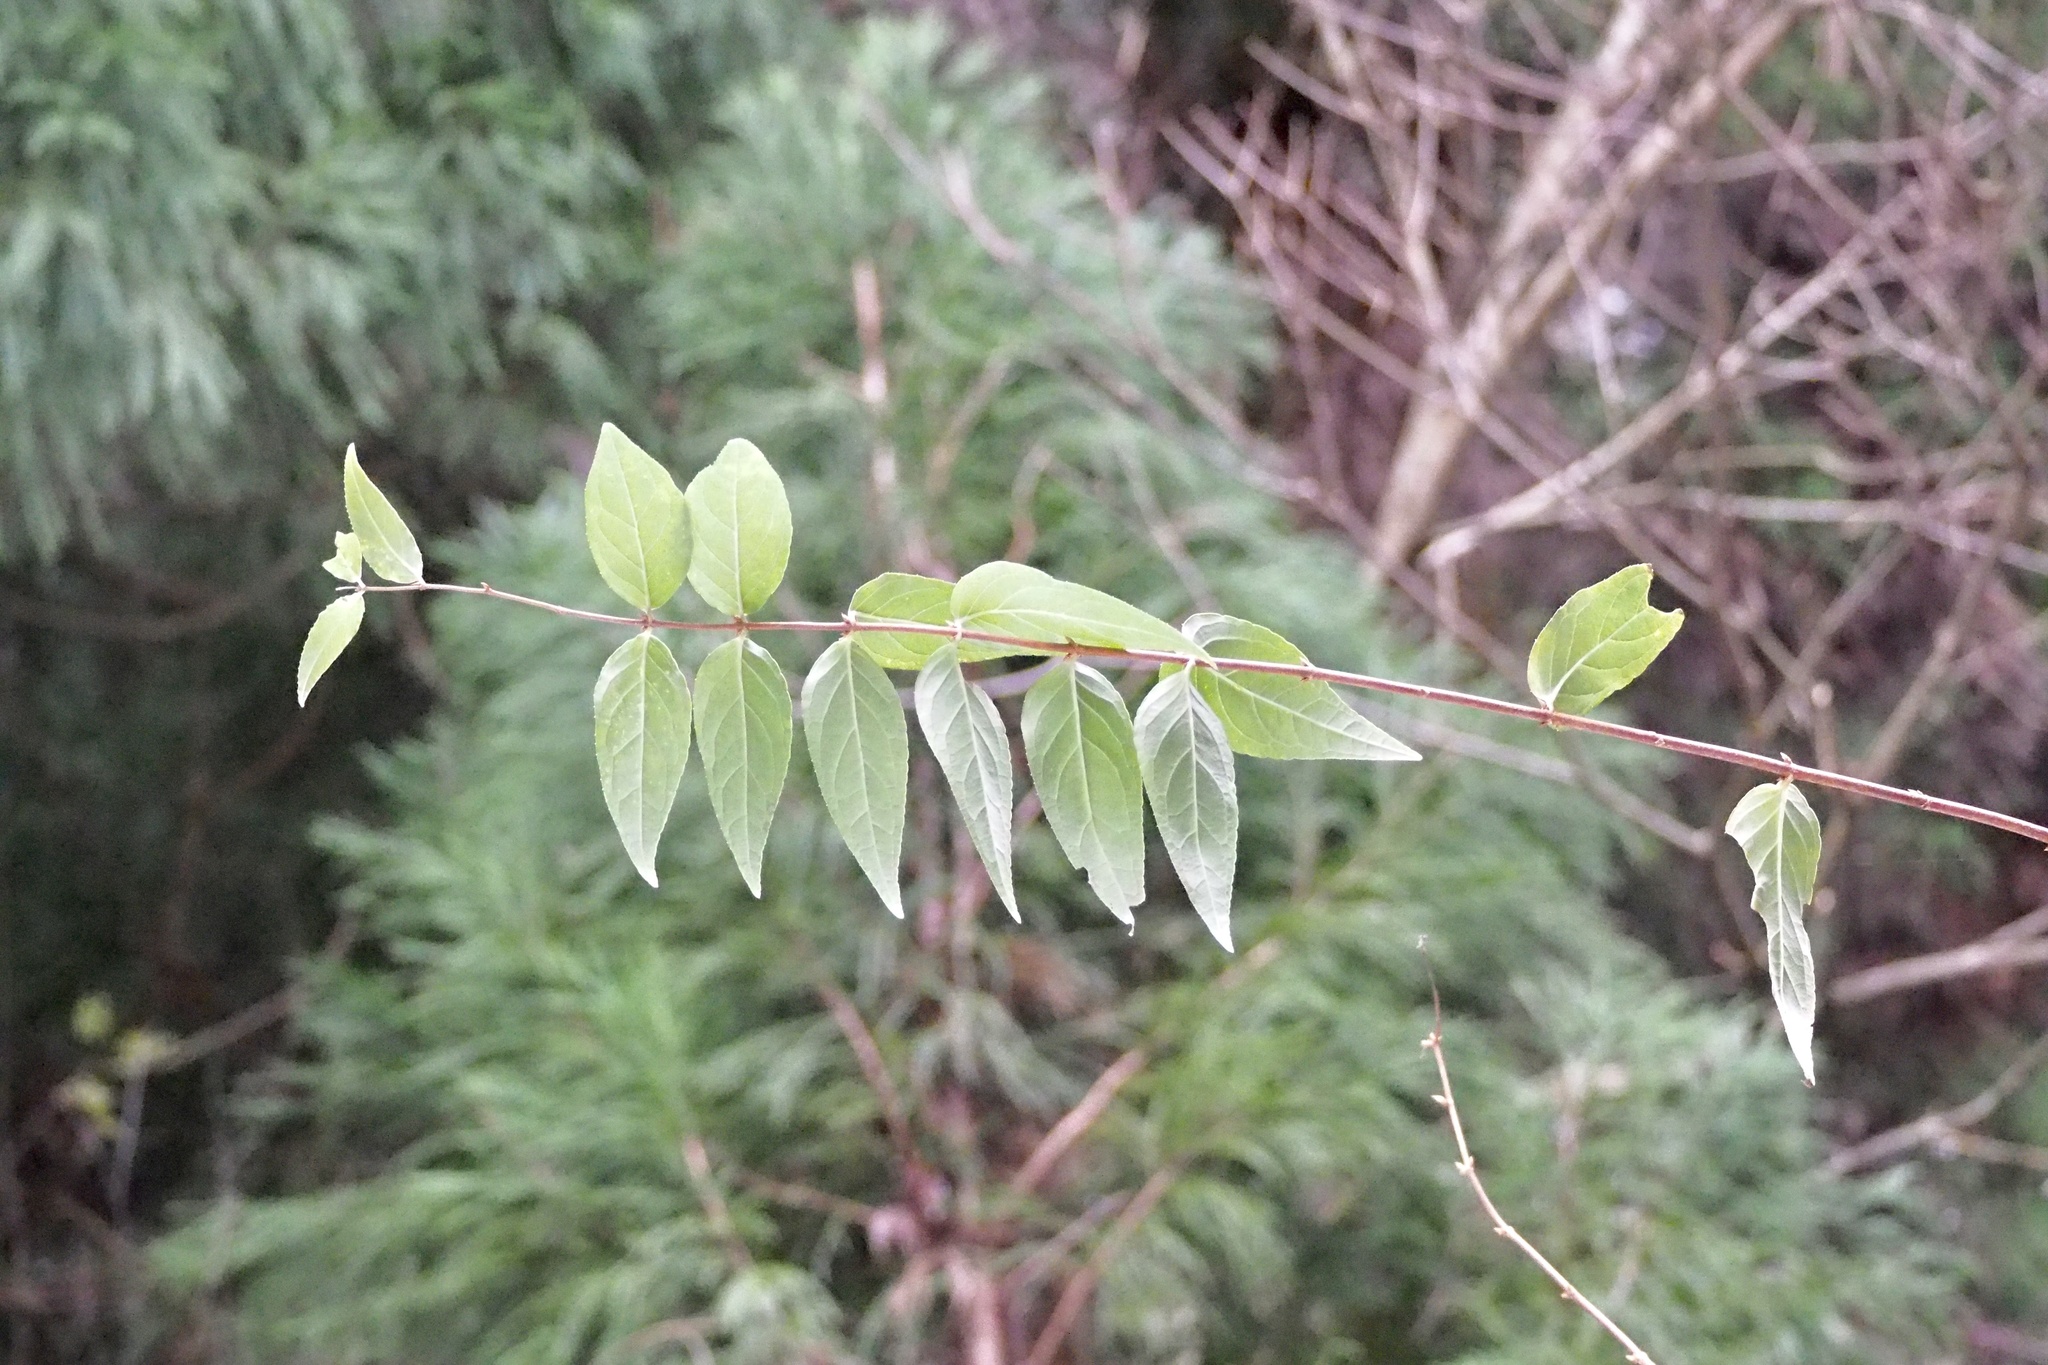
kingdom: Plantae
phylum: Tracheophyta
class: Magnoliopsida
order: Cornales
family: Hydrangeaceae
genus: Deutzia
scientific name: Deutzia crenata
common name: Deutzia
